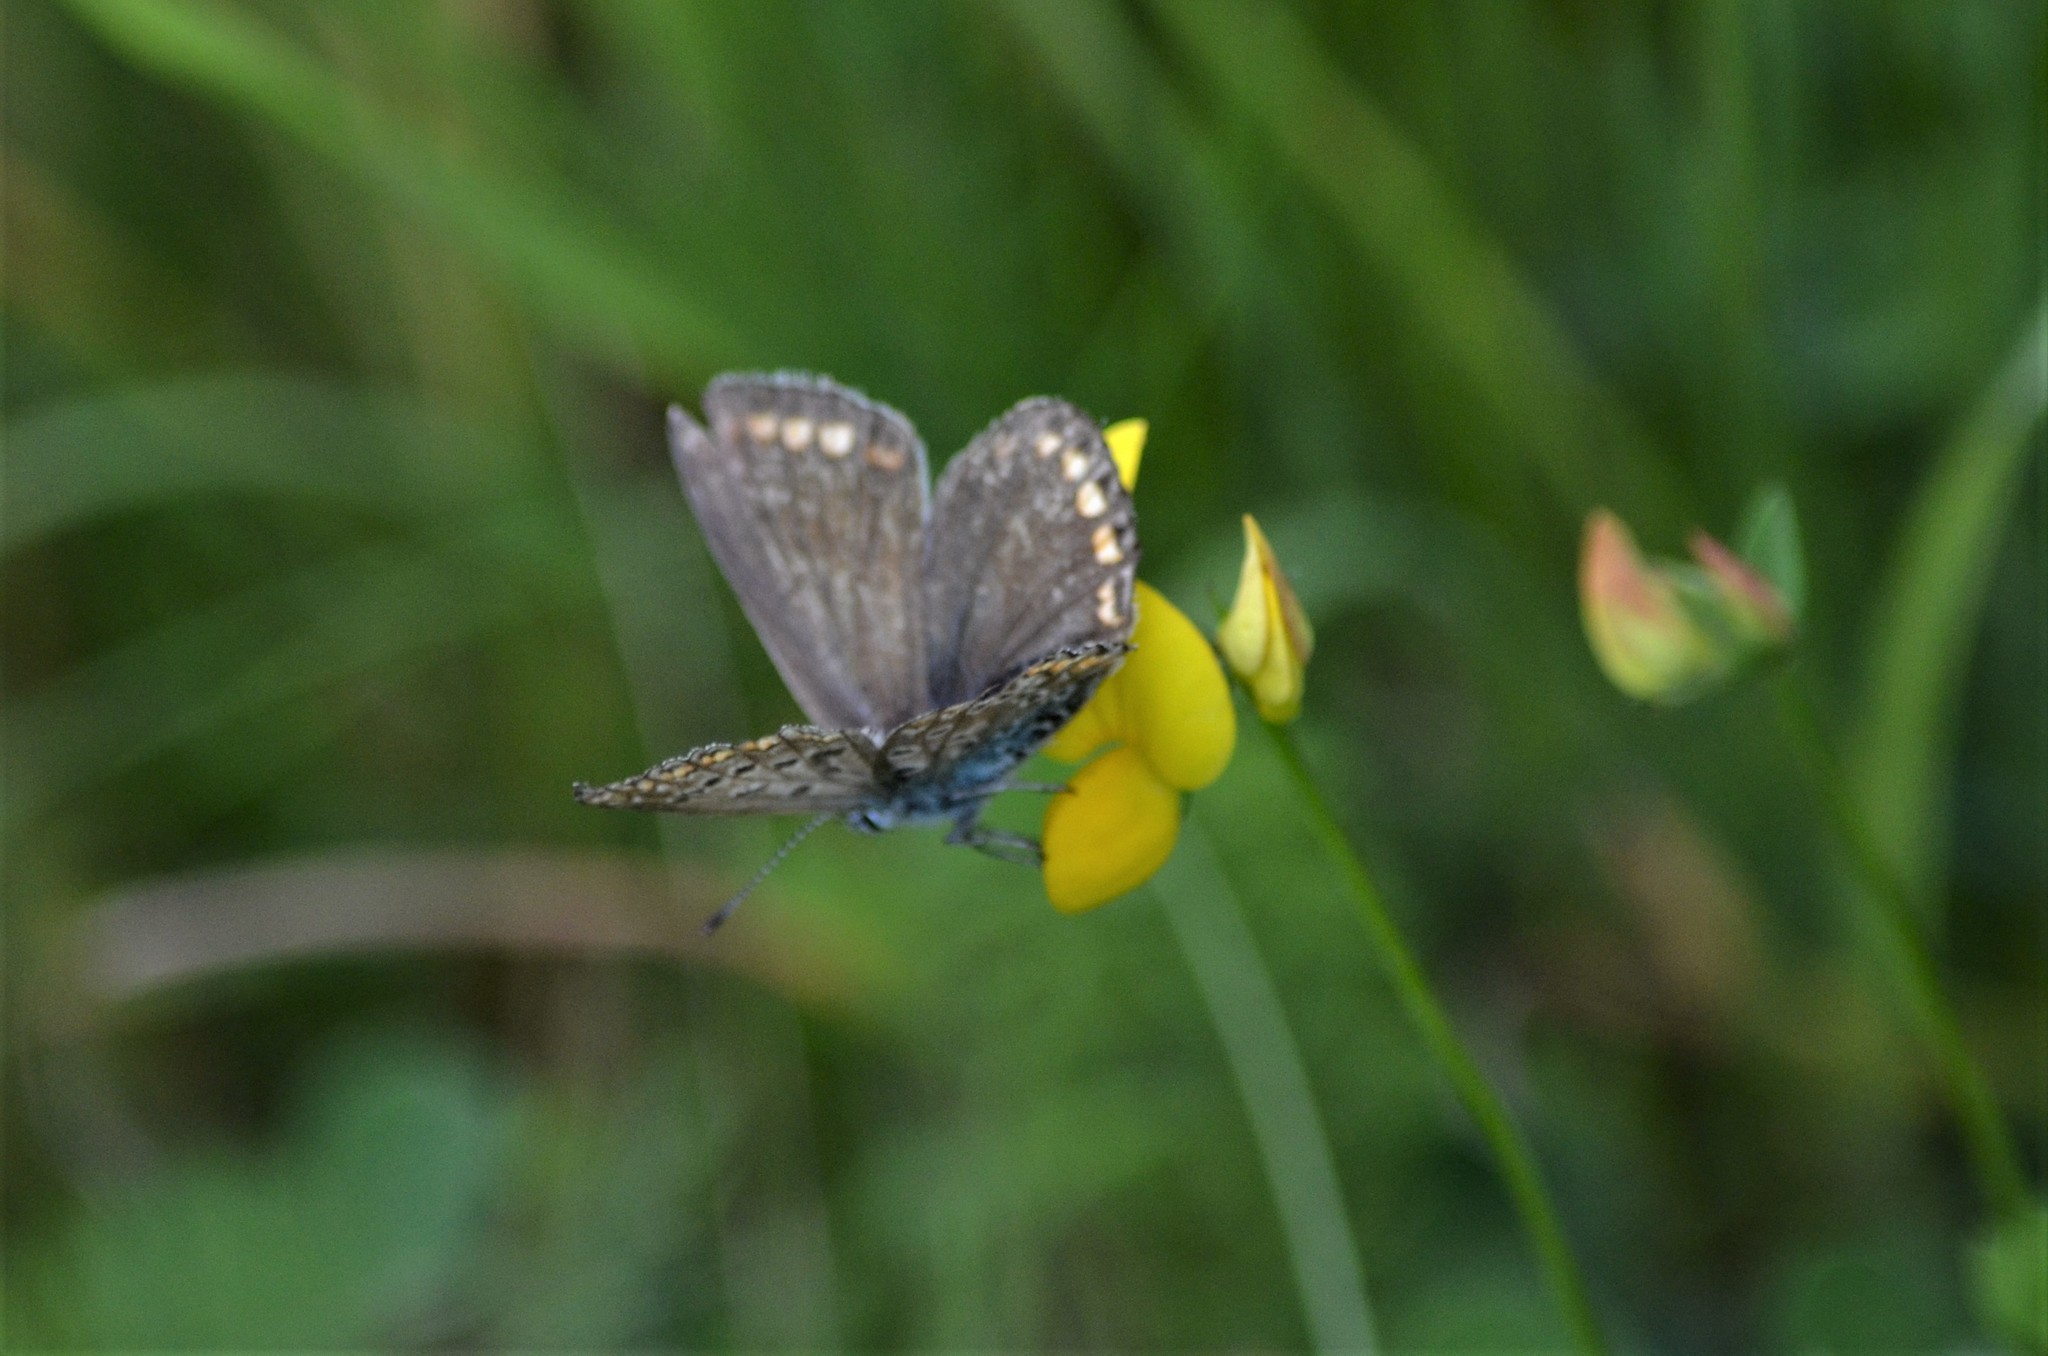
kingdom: Animalia
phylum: Arthropoda
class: Insecta
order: Lepidoptera
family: Lycaenidae
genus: Polyommatus
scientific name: Polyommatus icarus
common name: Common blue
